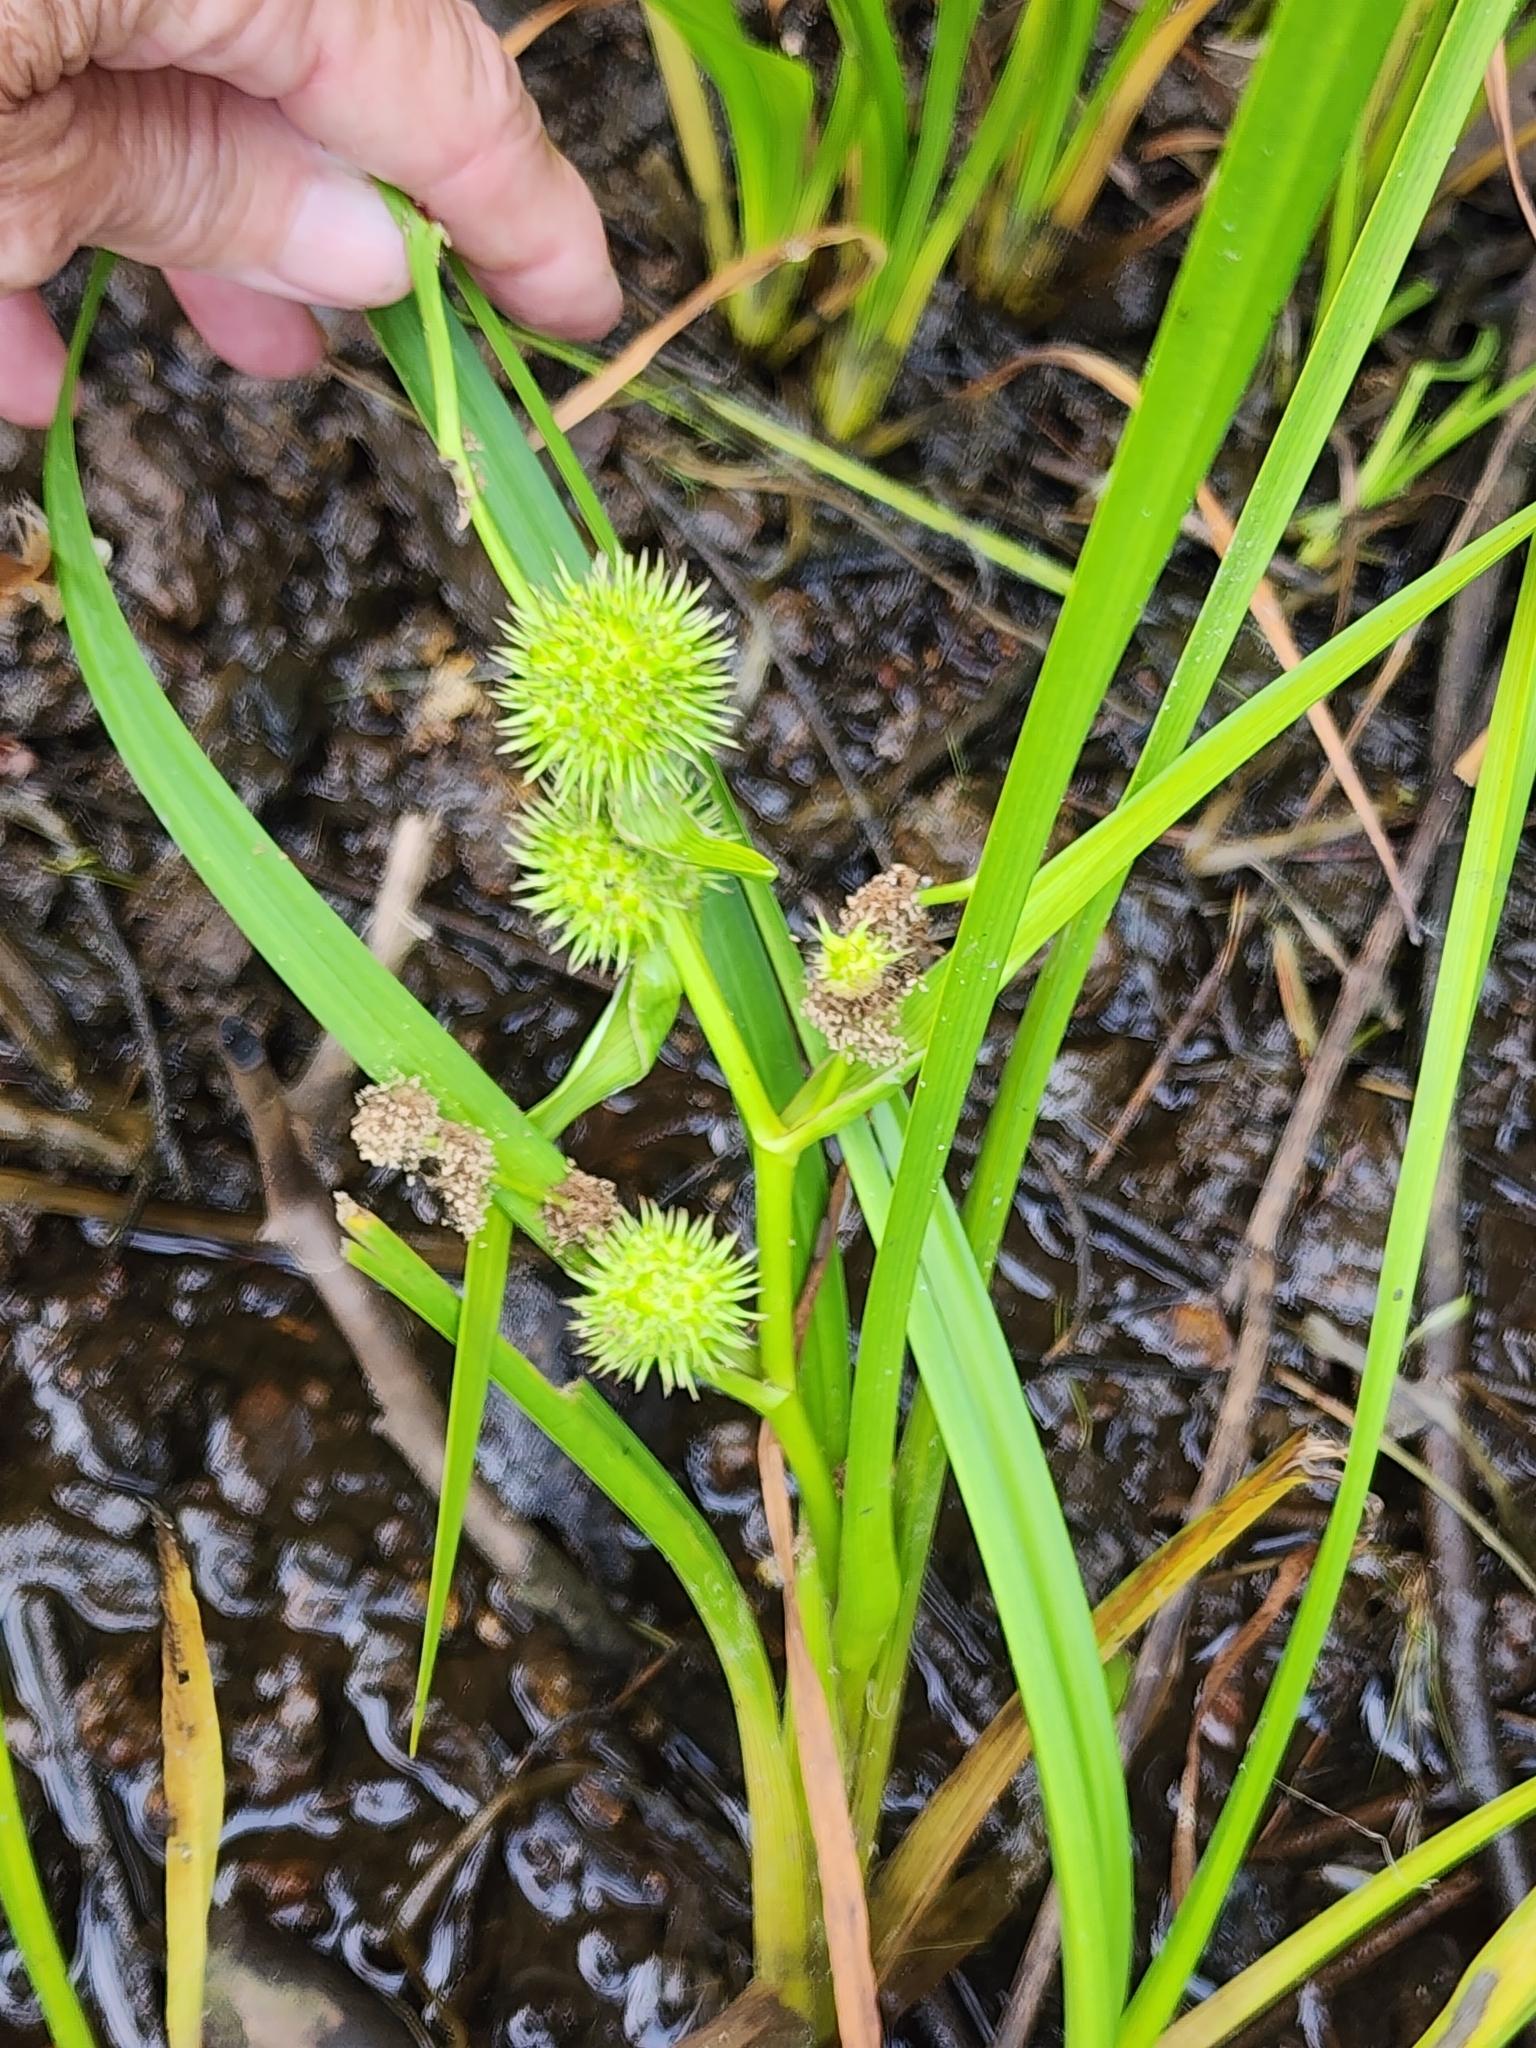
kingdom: Plantae
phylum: Tracheophyta
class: Liliopsida
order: Poales
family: Typhaceae
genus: Sparganium
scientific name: Sparganium americanum
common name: American burreed
